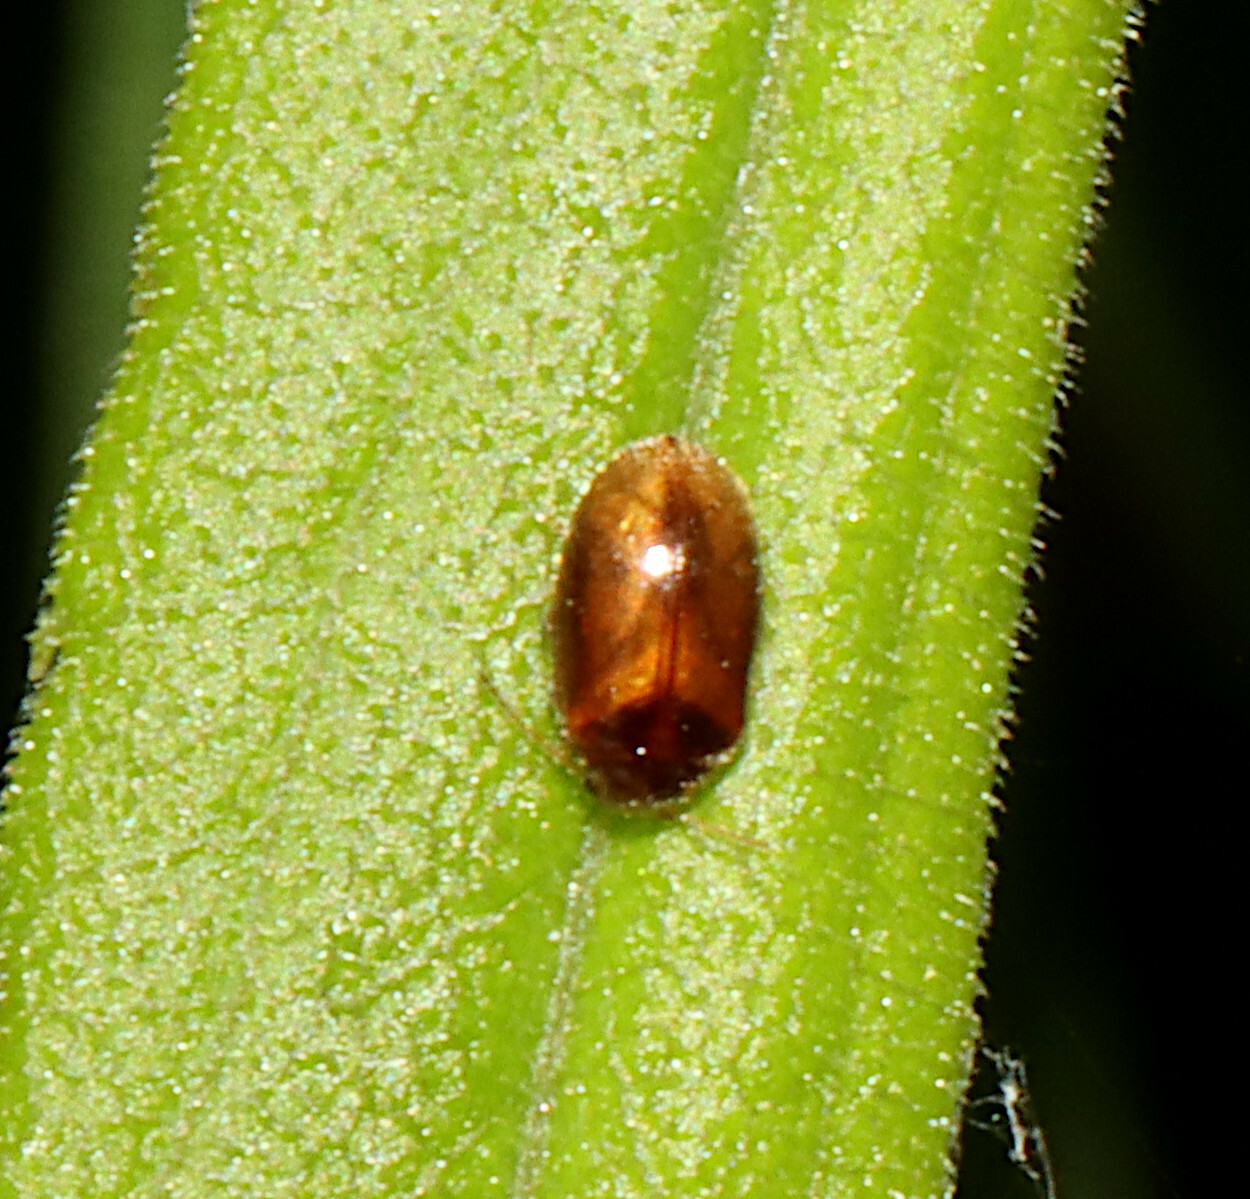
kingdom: Animalia
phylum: Arthropoda
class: Insecta
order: Coleoptera
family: Scirtidae
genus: Contacyphon
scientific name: Contacyphon
